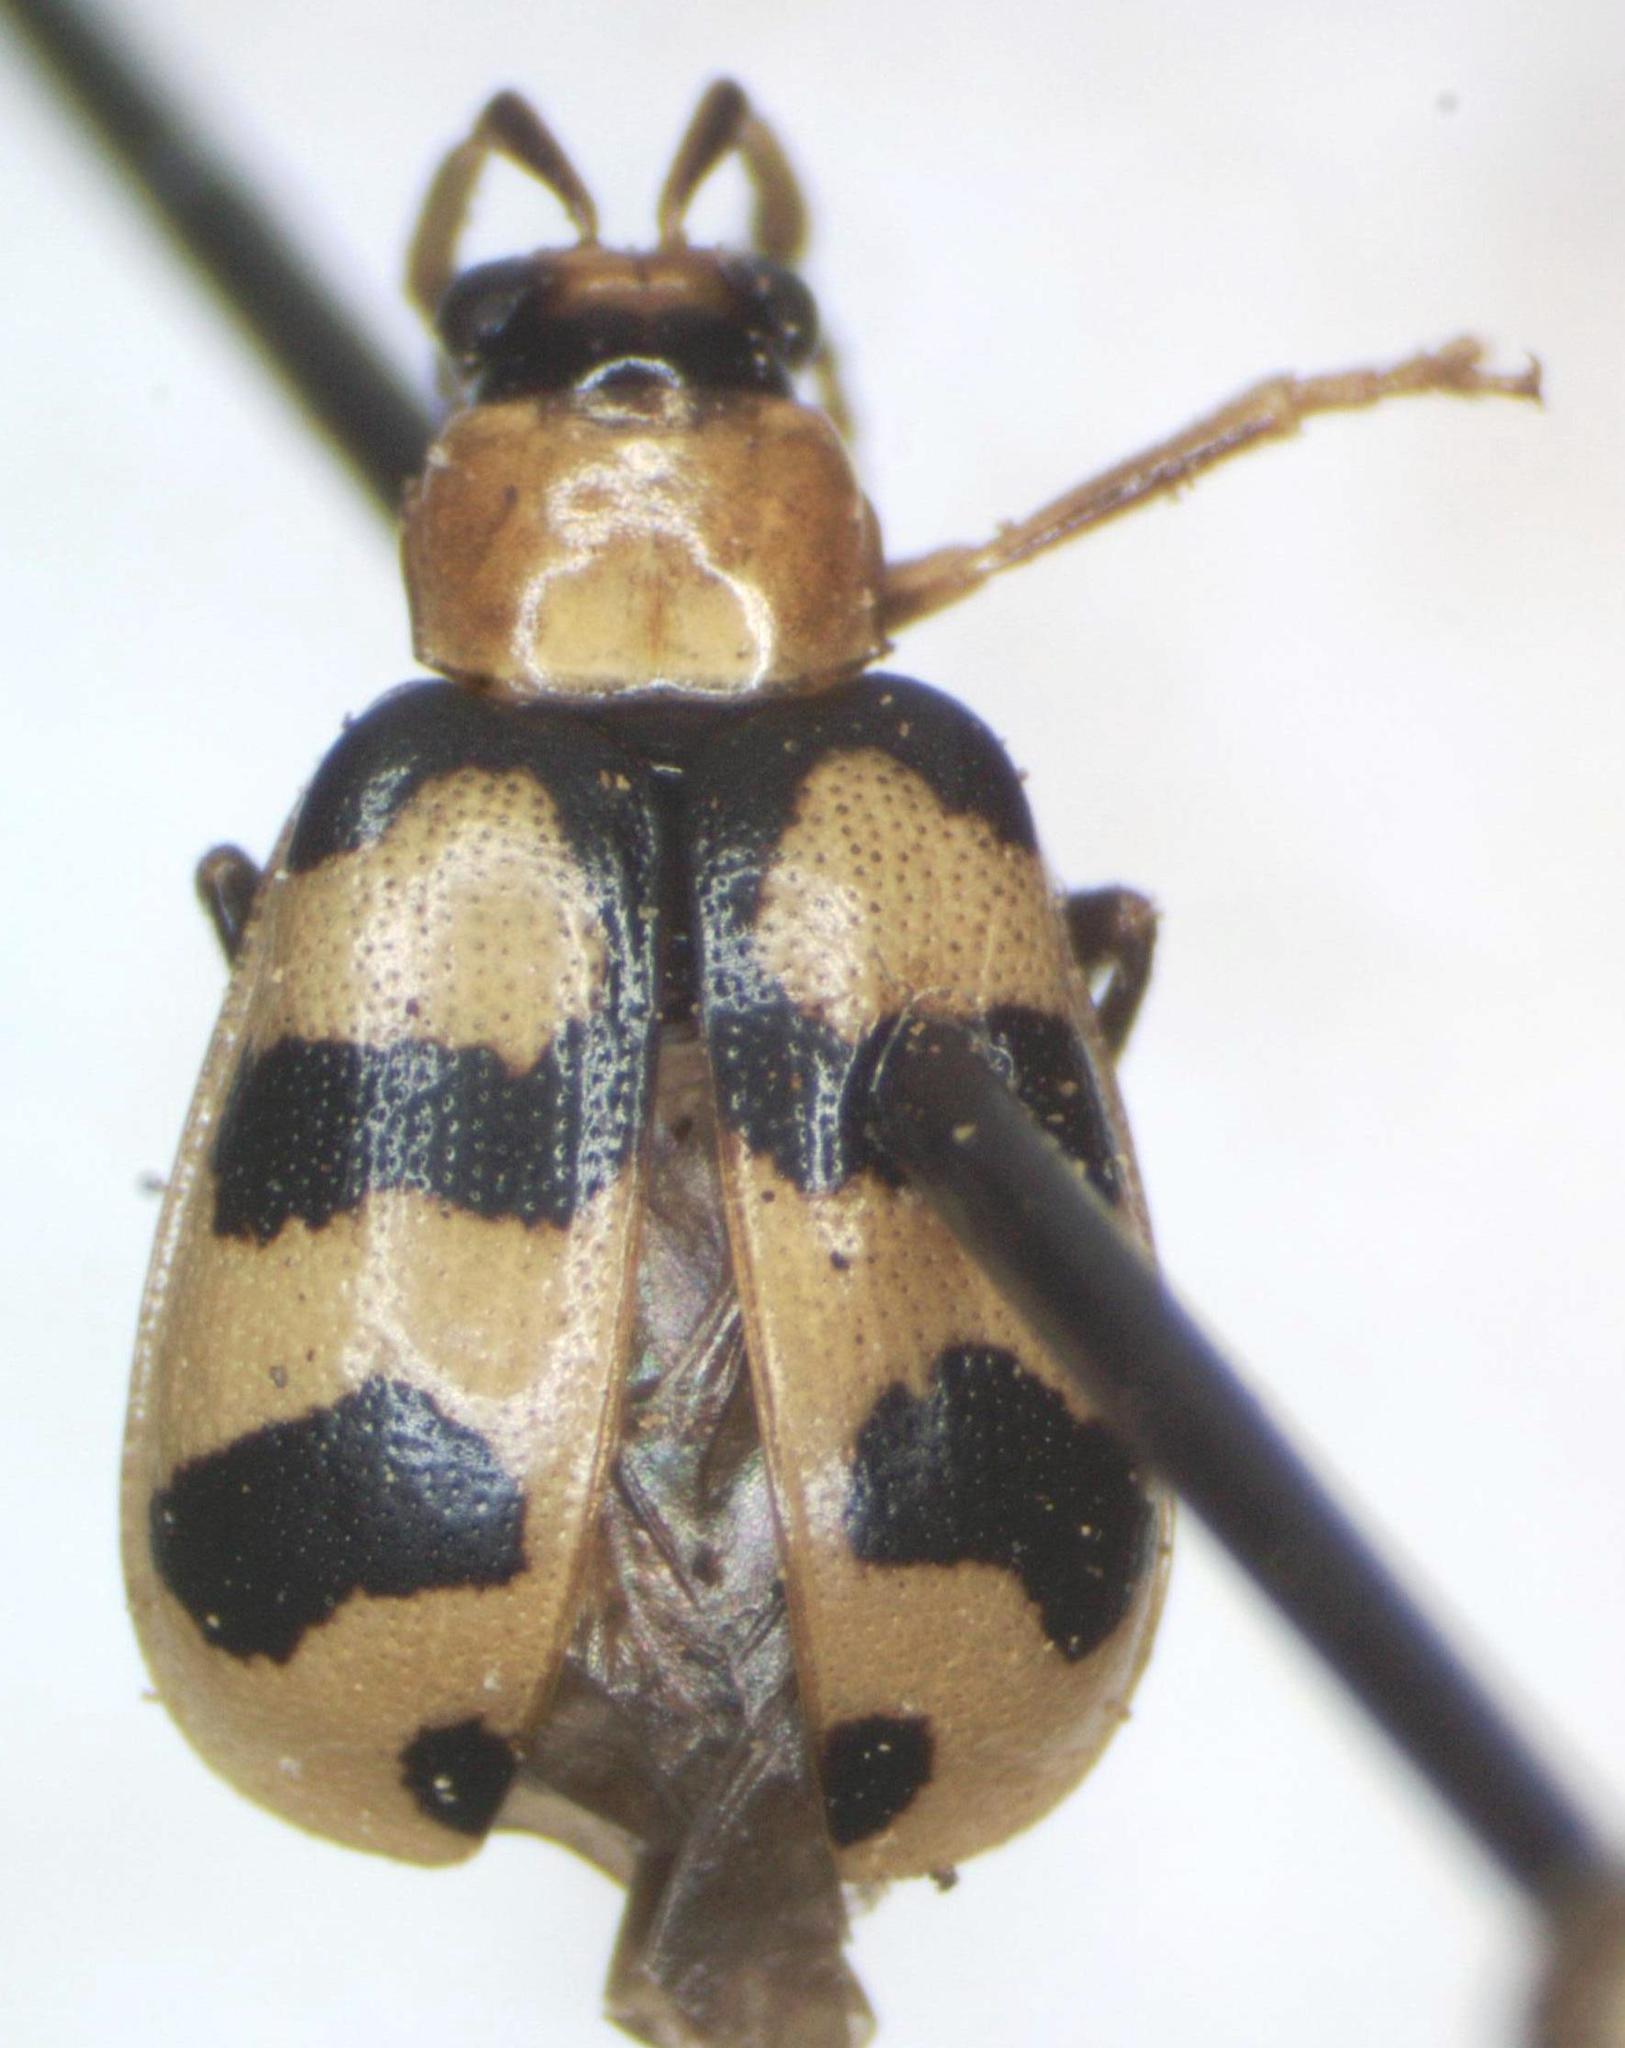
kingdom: Animalia
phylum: Arthropoda
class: Insecta
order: Coleoptera
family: Chrysomelidae
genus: Cerotoma
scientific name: Cerotoma atrofasciata
